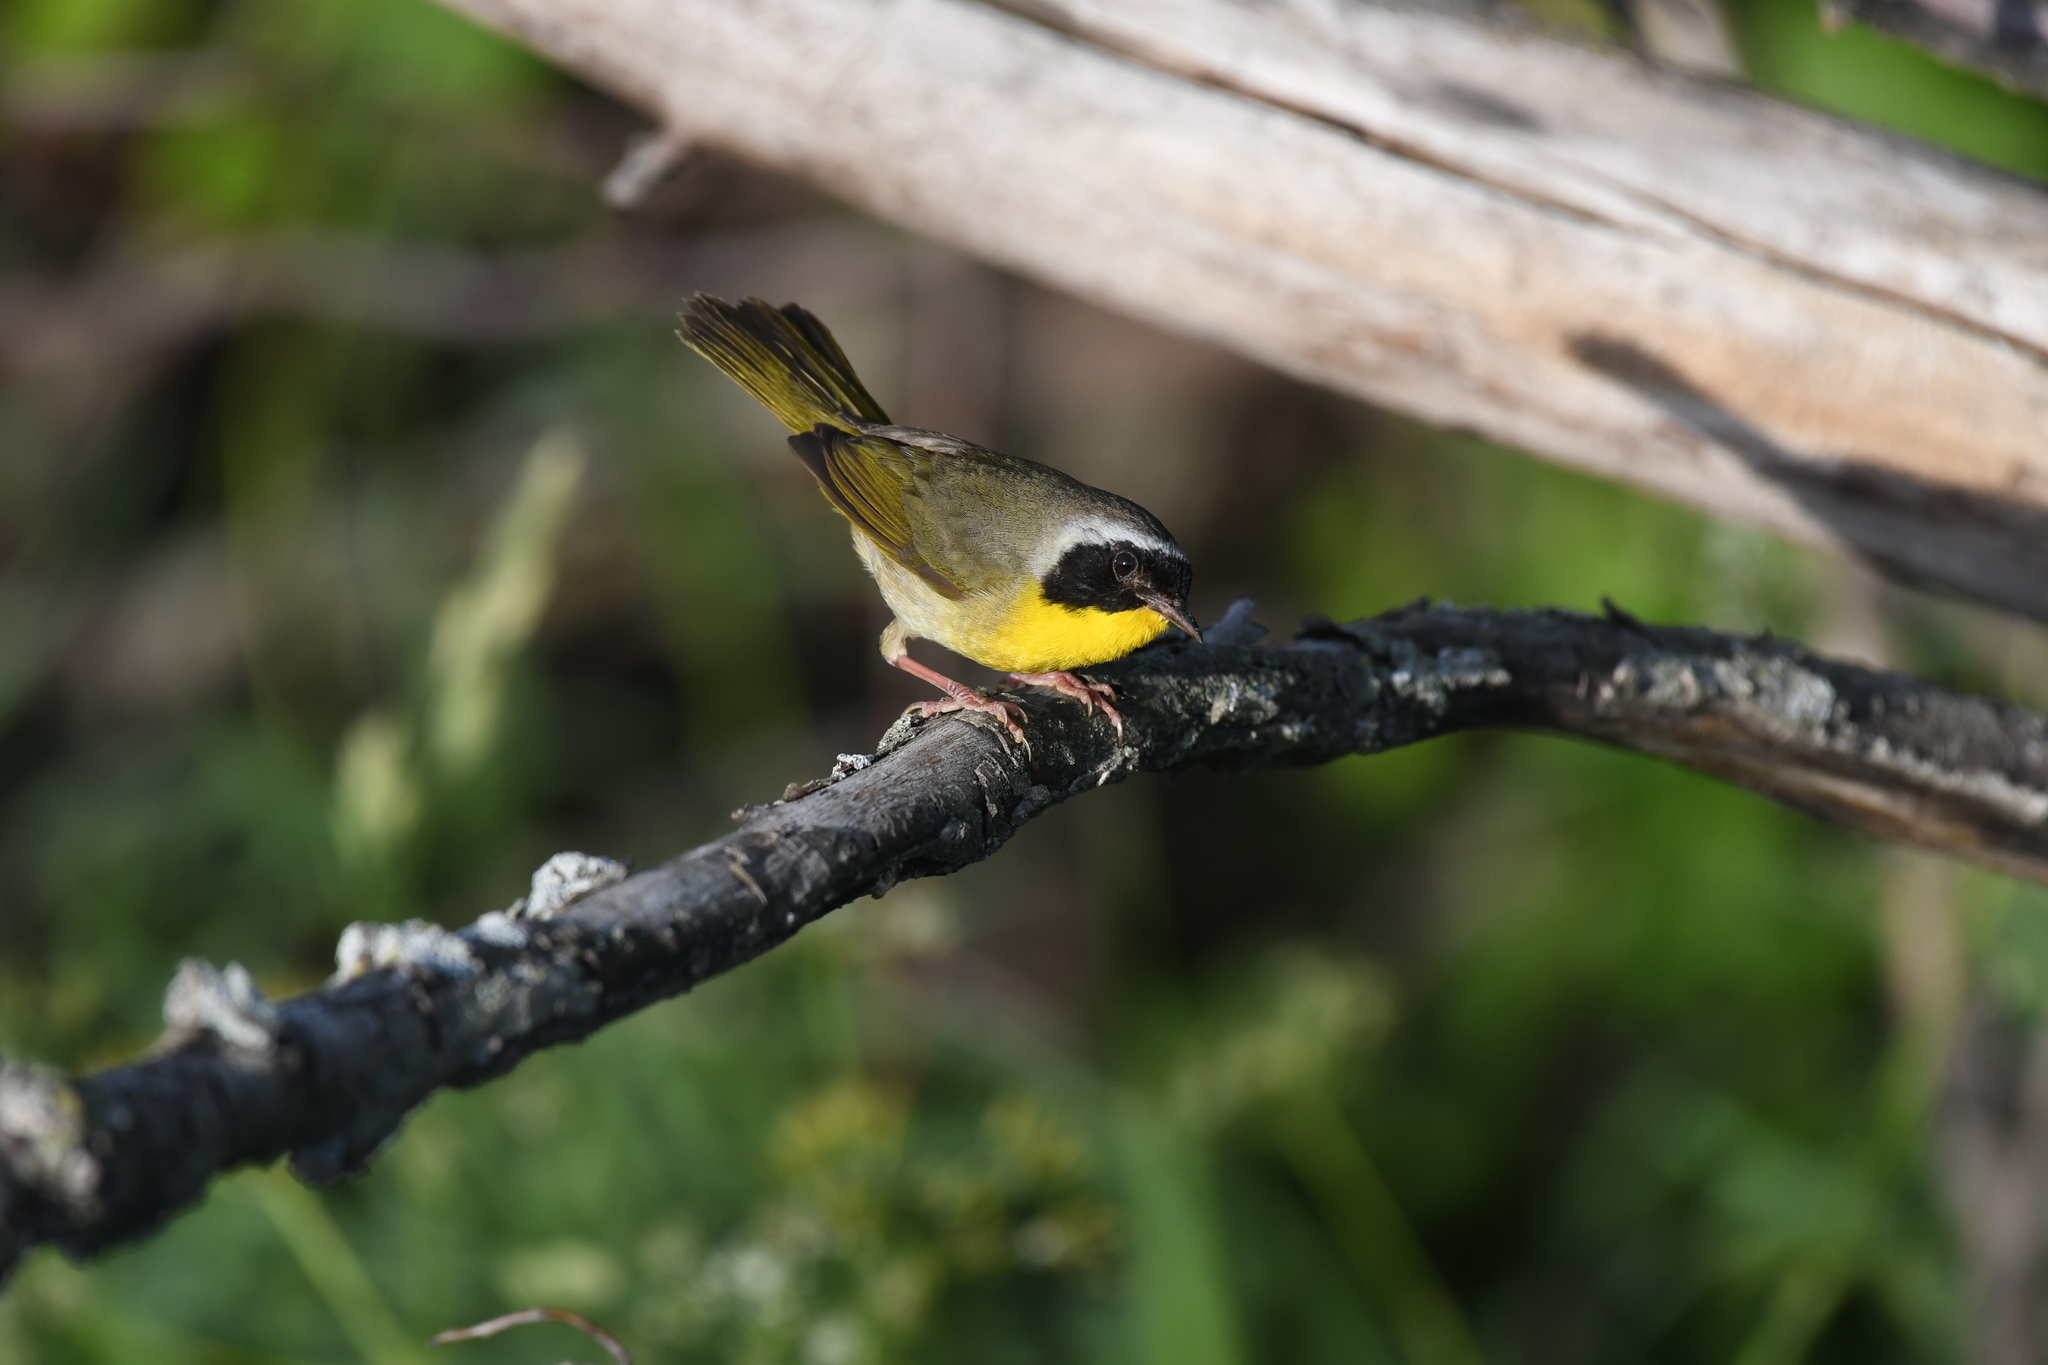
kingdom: Animalia
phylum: Chordata
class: Aves
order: Passeriformes
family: Parulidae
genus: Geothlypis
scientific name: Geothlypis trichas
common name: Common yellowthroat
